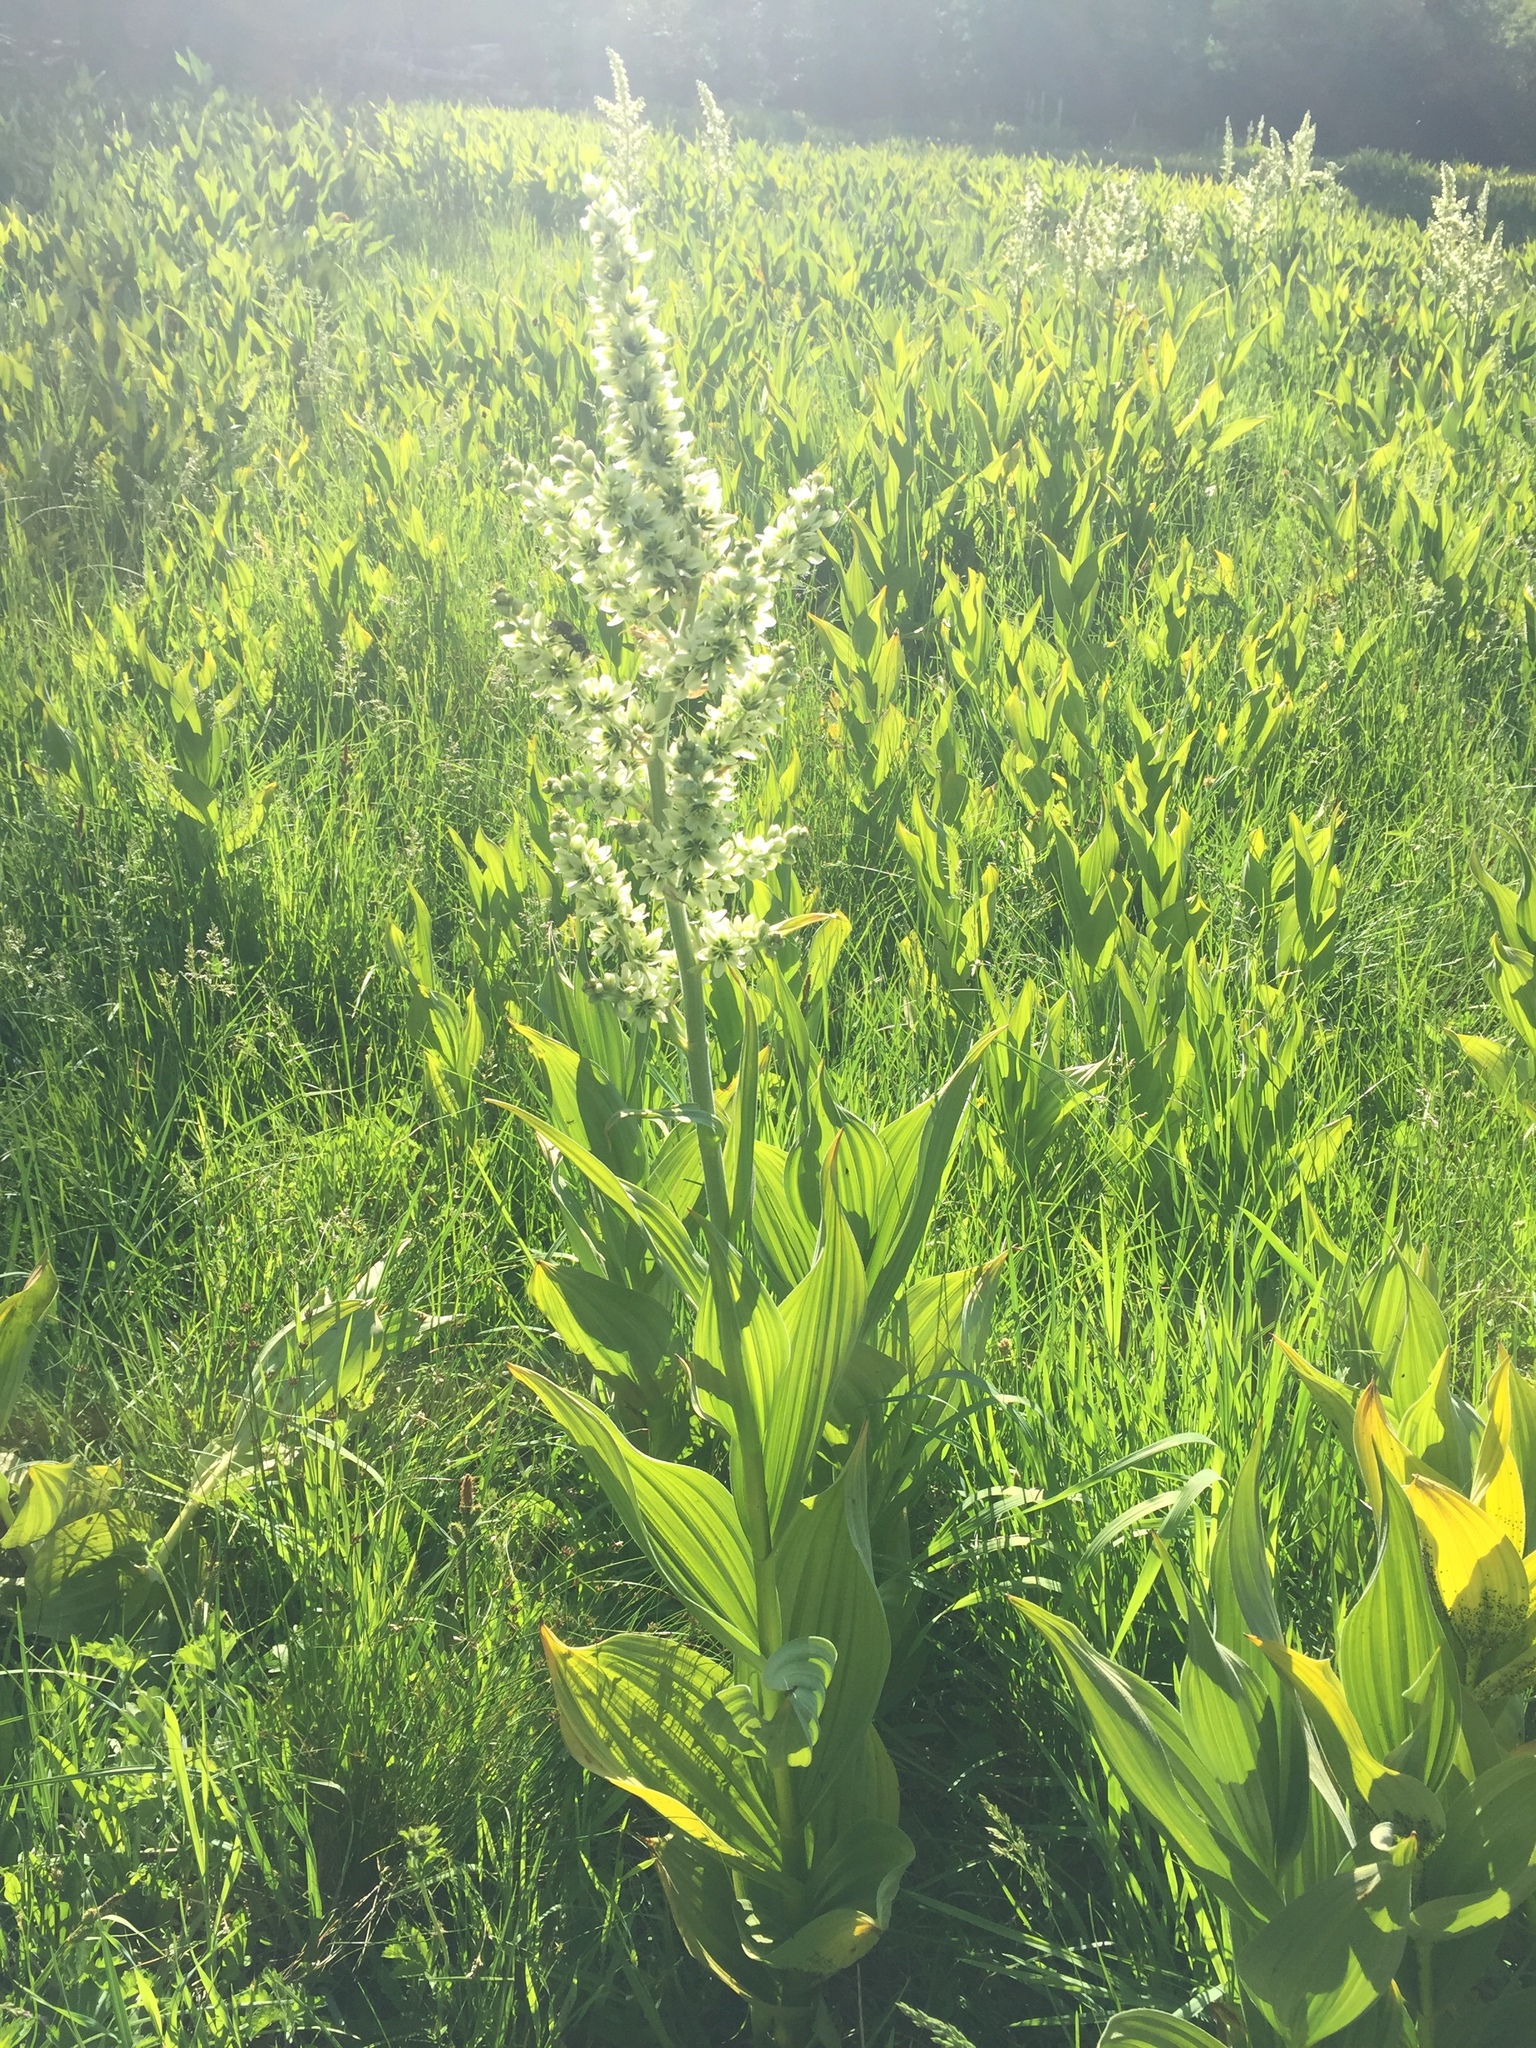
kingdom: Plantae
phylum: Tracheophyta
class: Liliopsida
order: Liliales
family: Melanthiaceae
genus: Veratrum
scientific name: Veratrum californicum
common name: California veratrum
